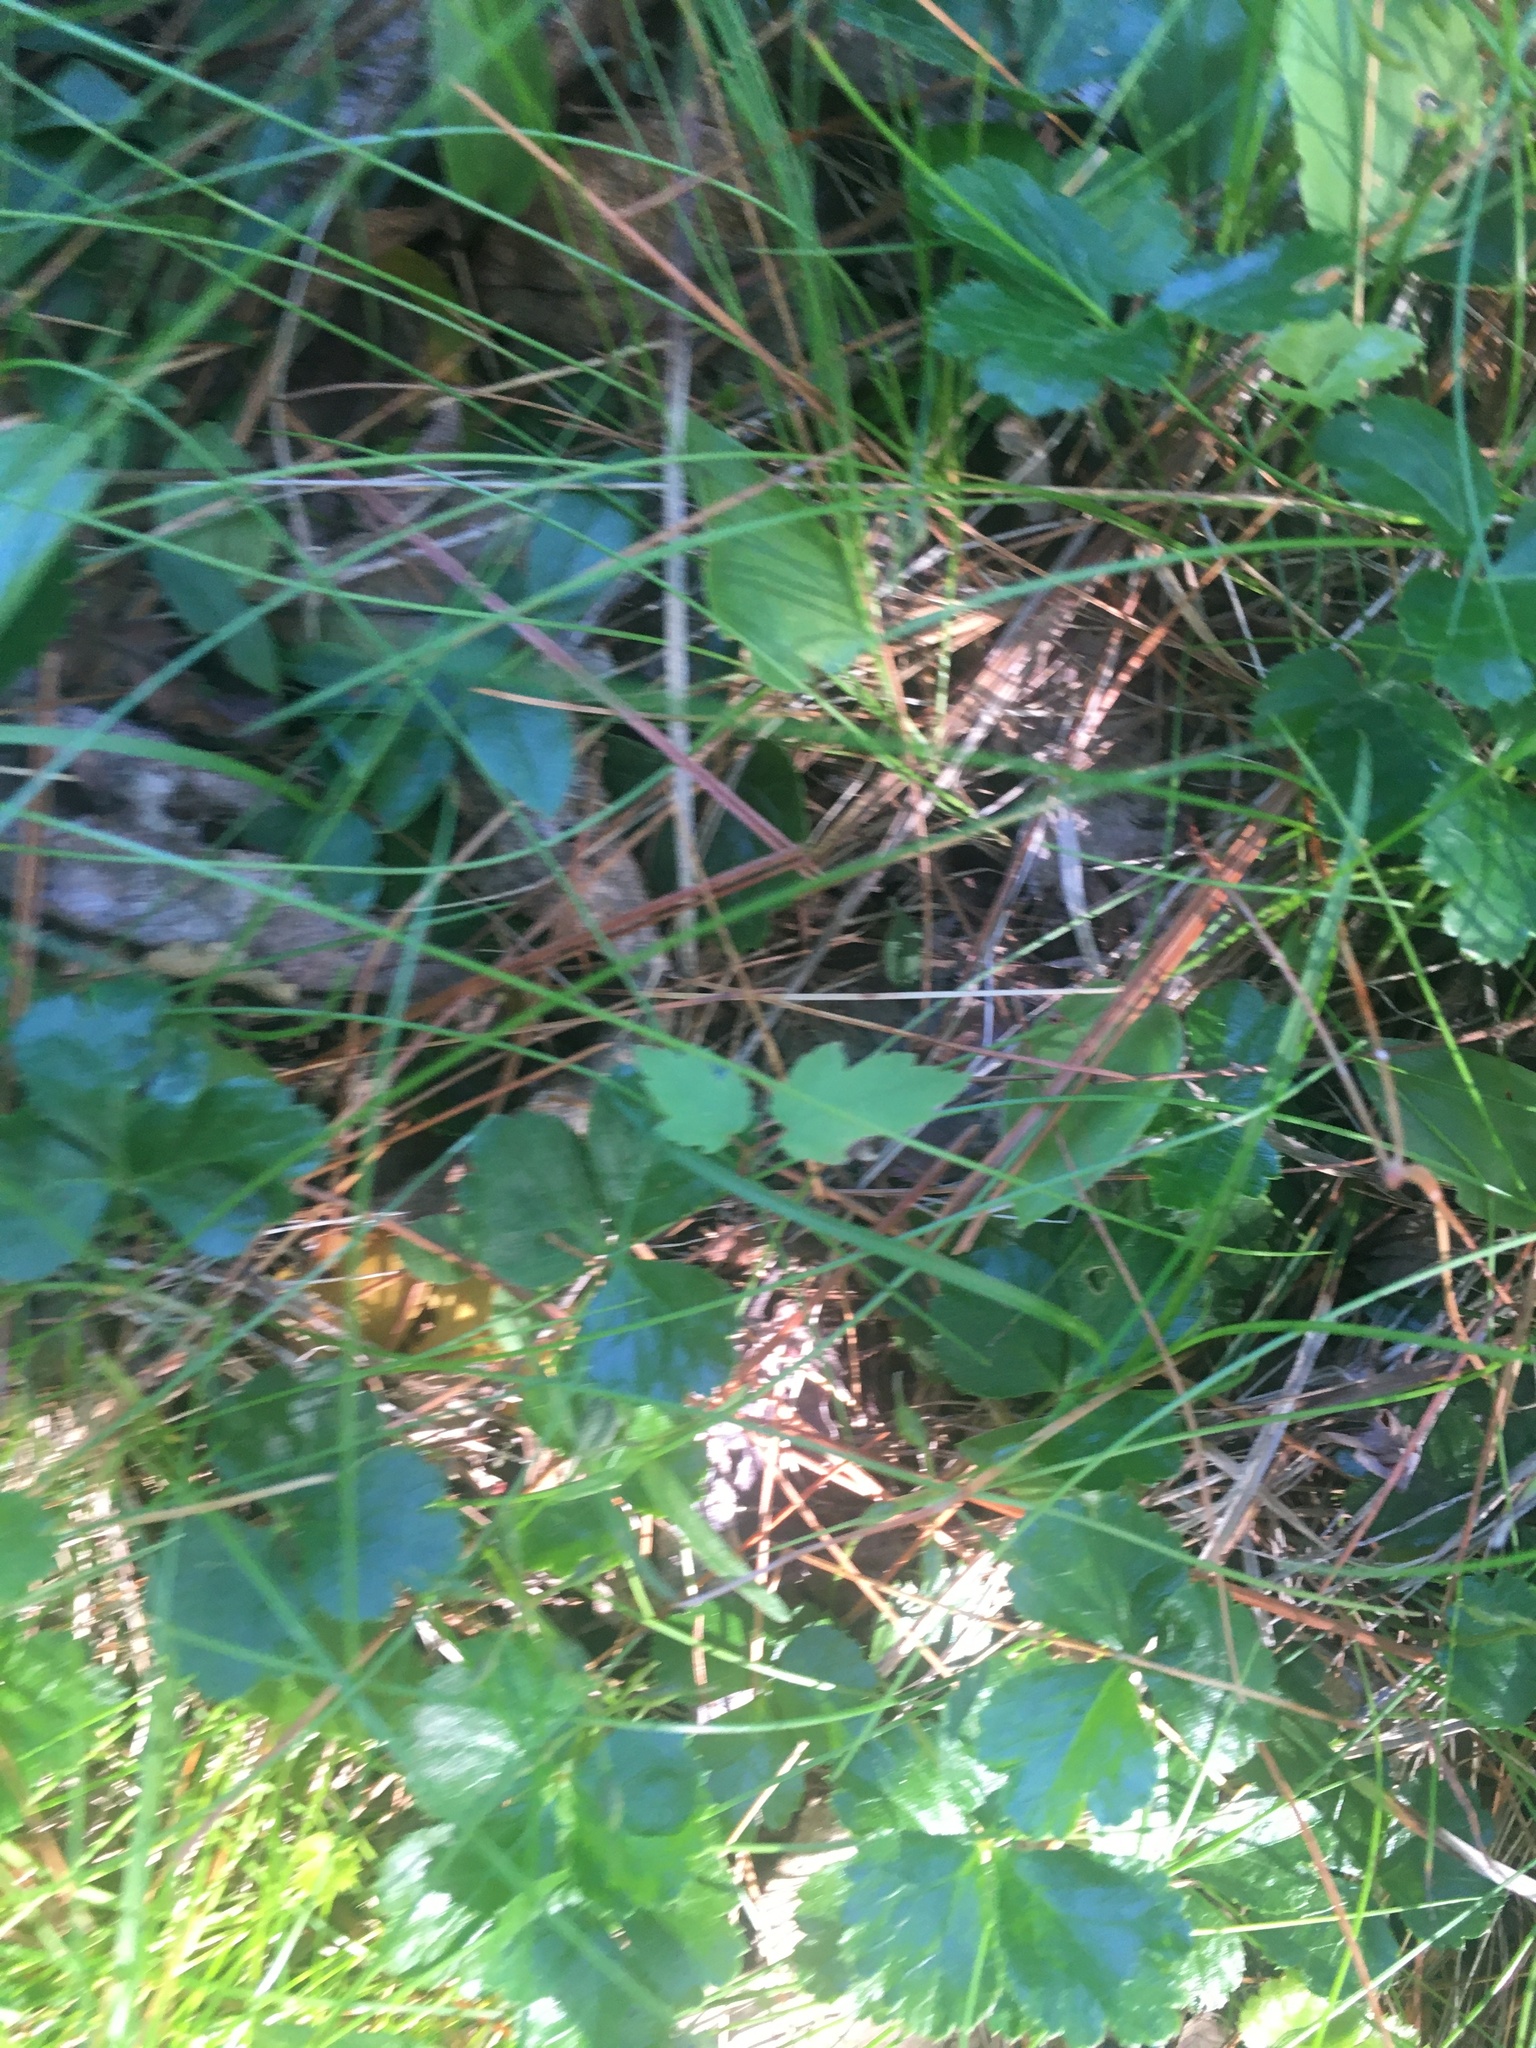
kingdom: Plantae
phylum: Tracheophyta
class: Magnoliopsida
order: Ranunculales
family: Ranunculaceae
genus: Coptis
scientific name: Coptis trifolia
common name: Canker-root
